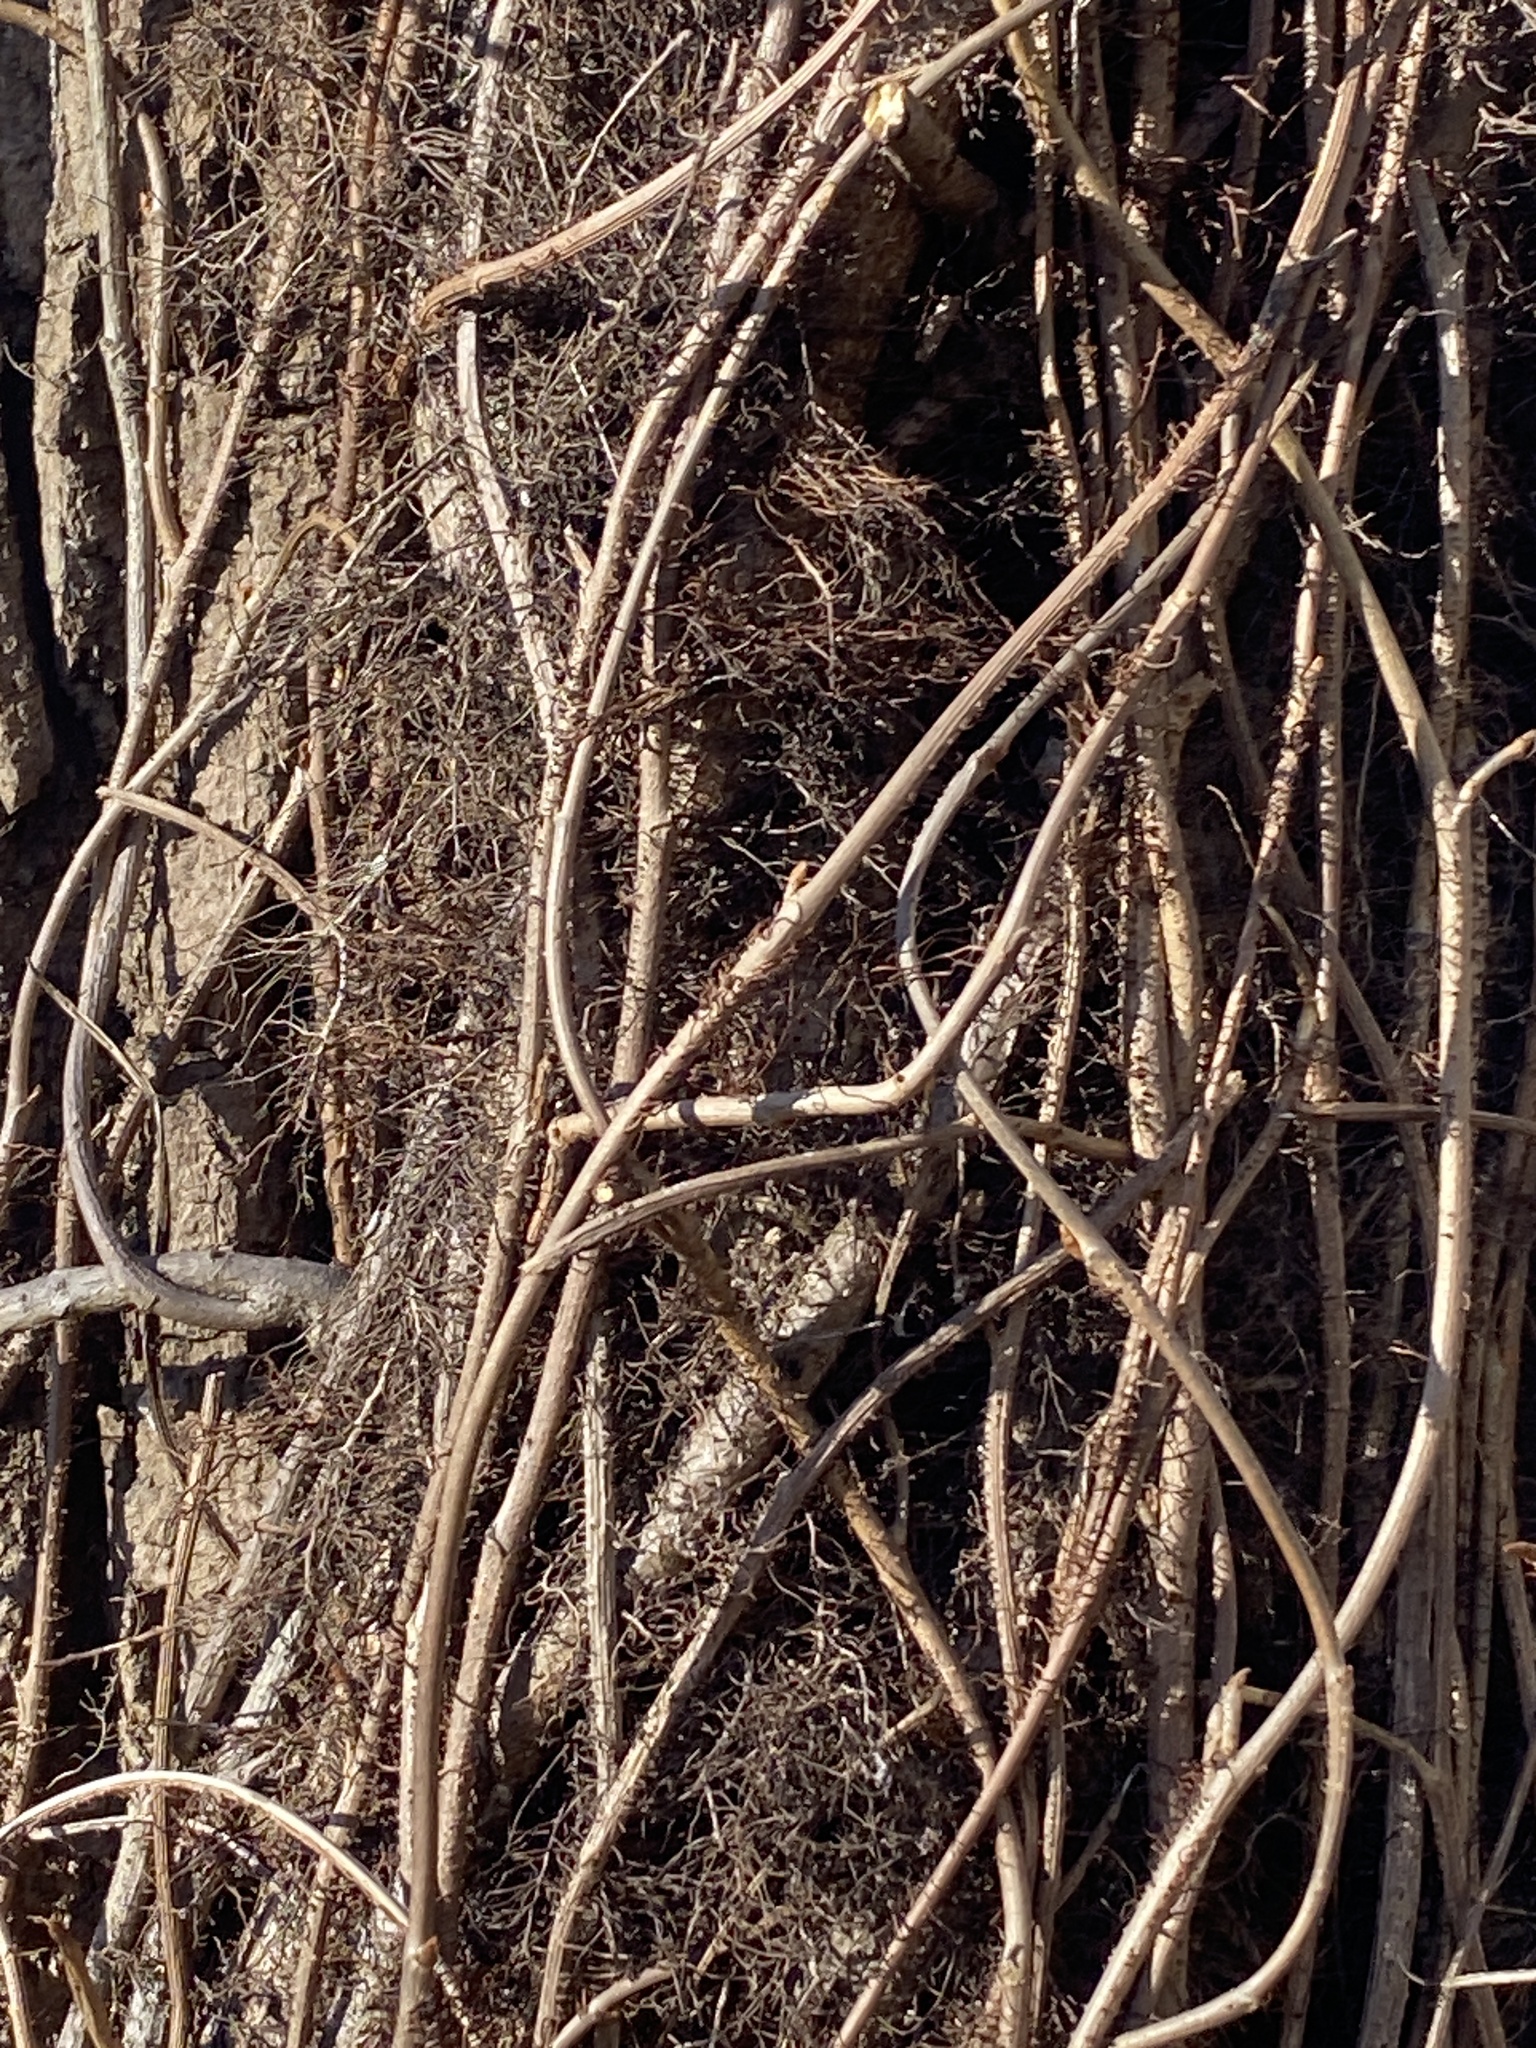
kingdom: Plantae
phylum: Tracheophyta
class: Magnoliopsida
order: Sapindales
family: Anacardiaceae
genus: Toxicodendron
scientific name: Toxicodendron radicans
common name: Poison ivy
